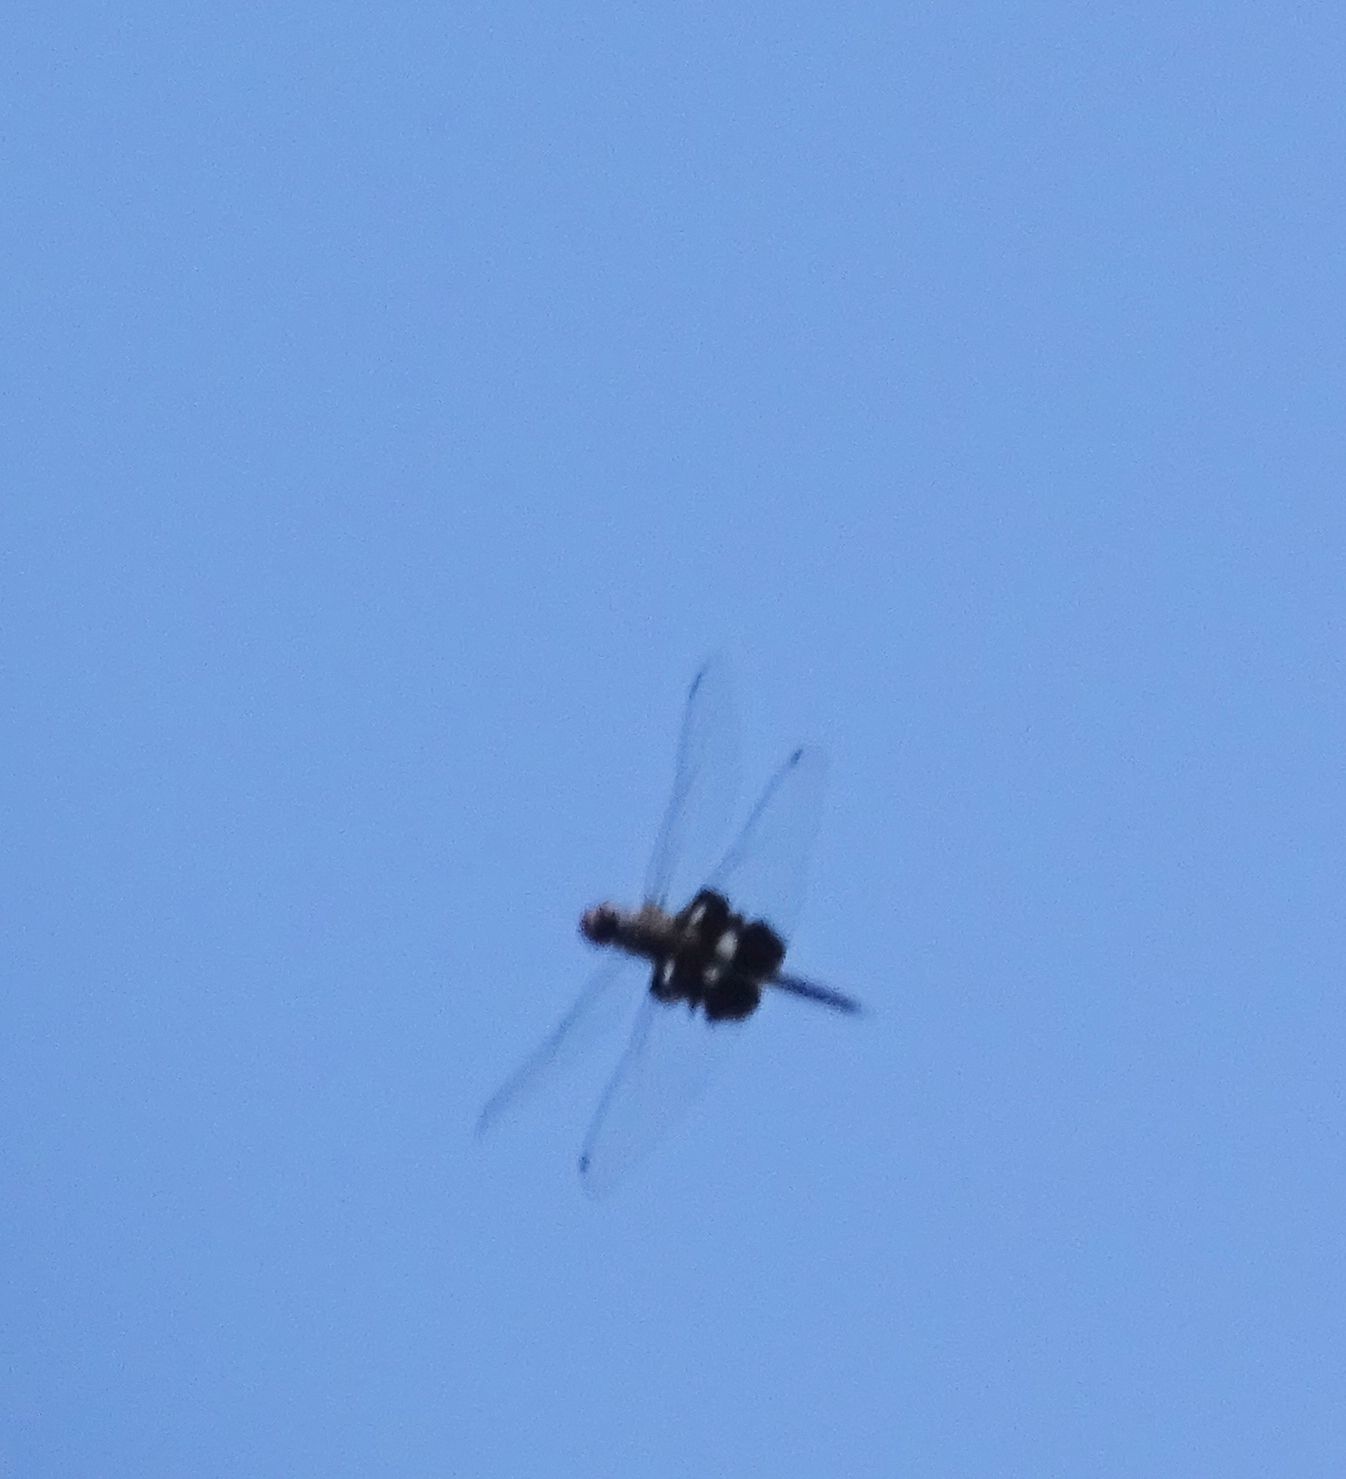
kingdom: Animalia
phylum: Arthropoda
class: Insecta
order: Odonata
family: Libellulidae
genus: Tramea
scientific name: Tramea lacerata
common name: Black saddlebags
